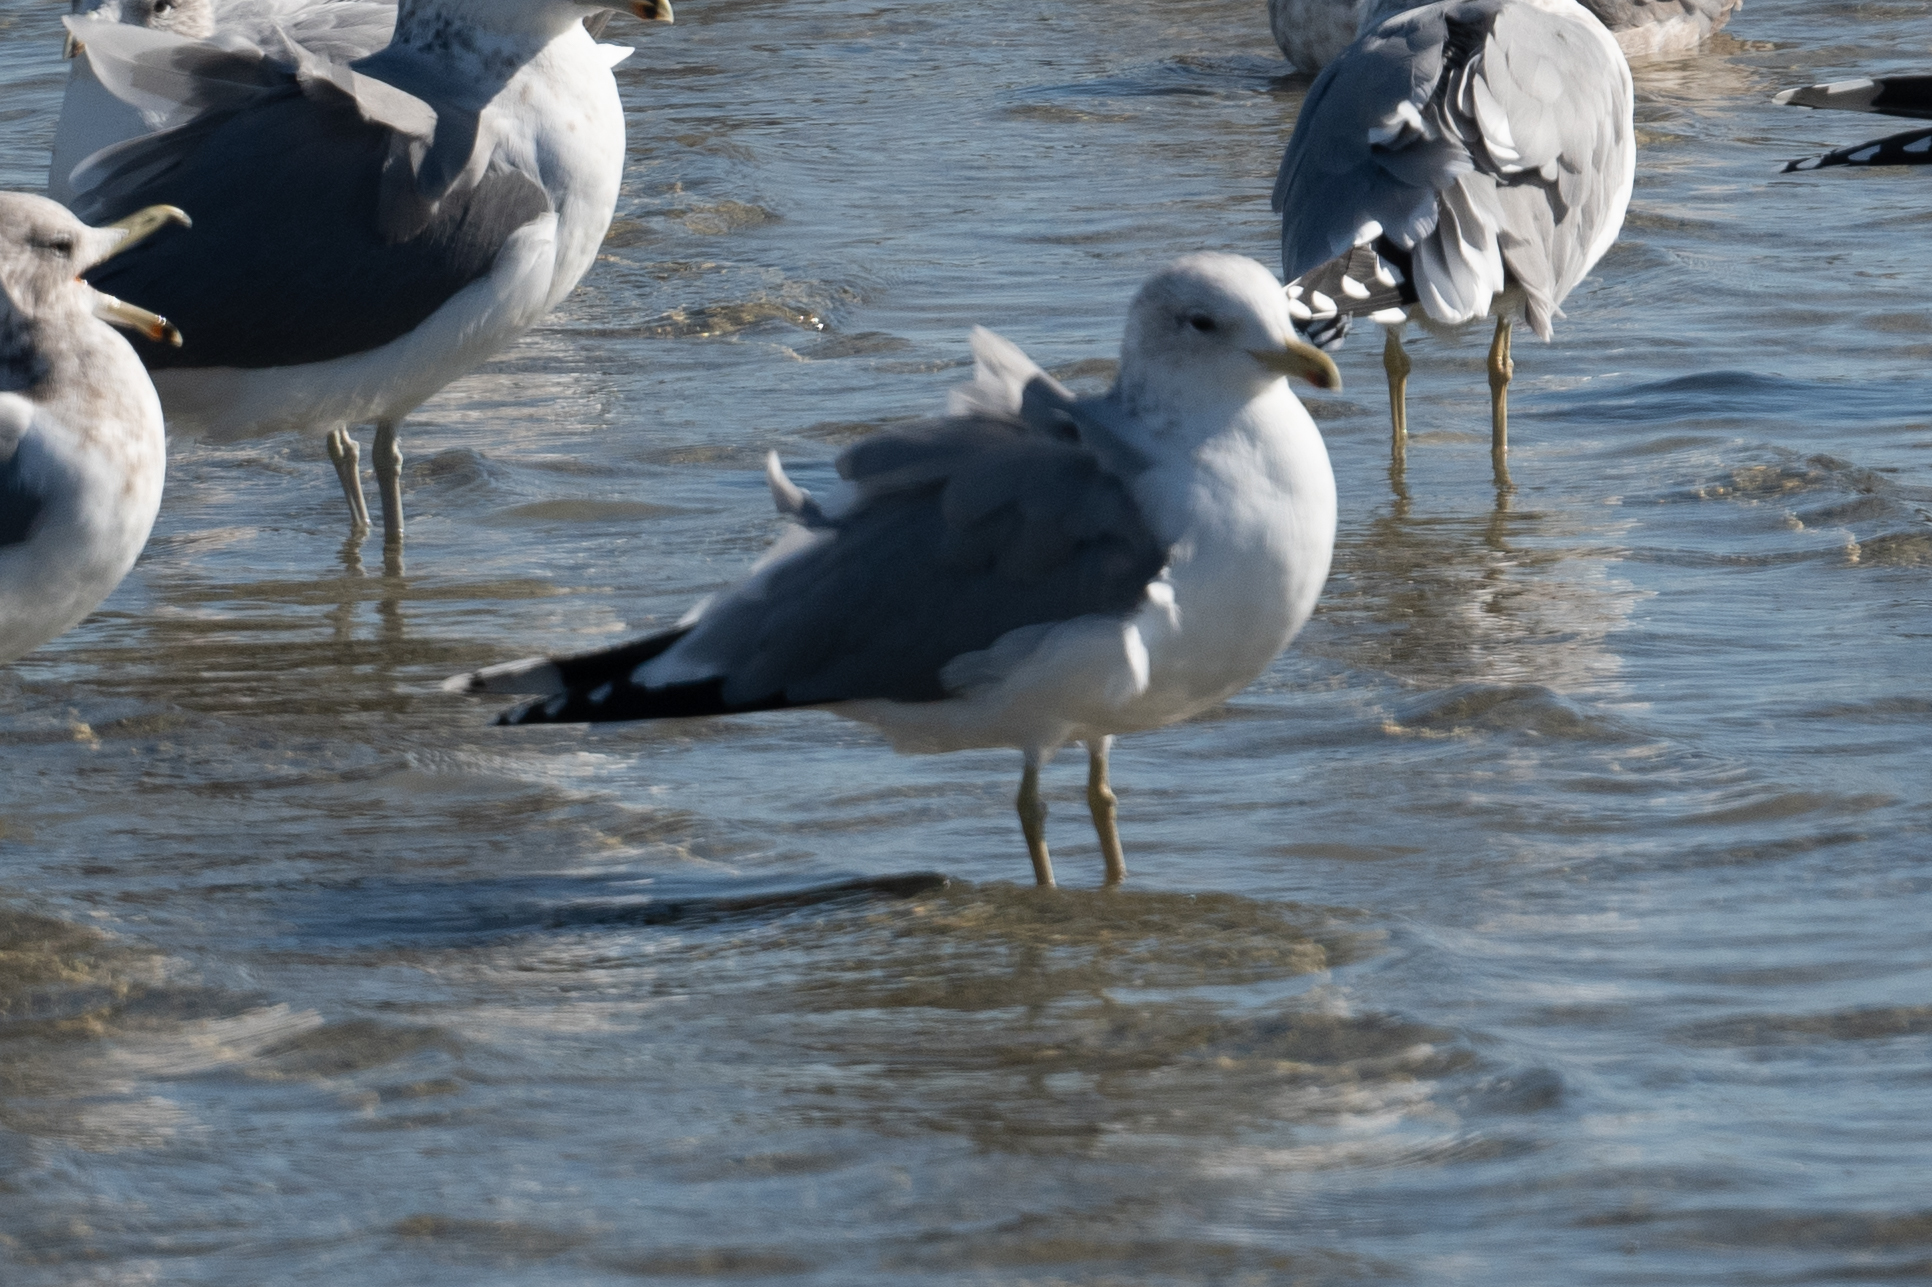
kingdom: Animalia
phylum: Chordata
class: Aves
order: Charadriiformes
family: Laridae
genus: Larus
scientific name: Larus delawarensis
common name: Ring-billed gull
